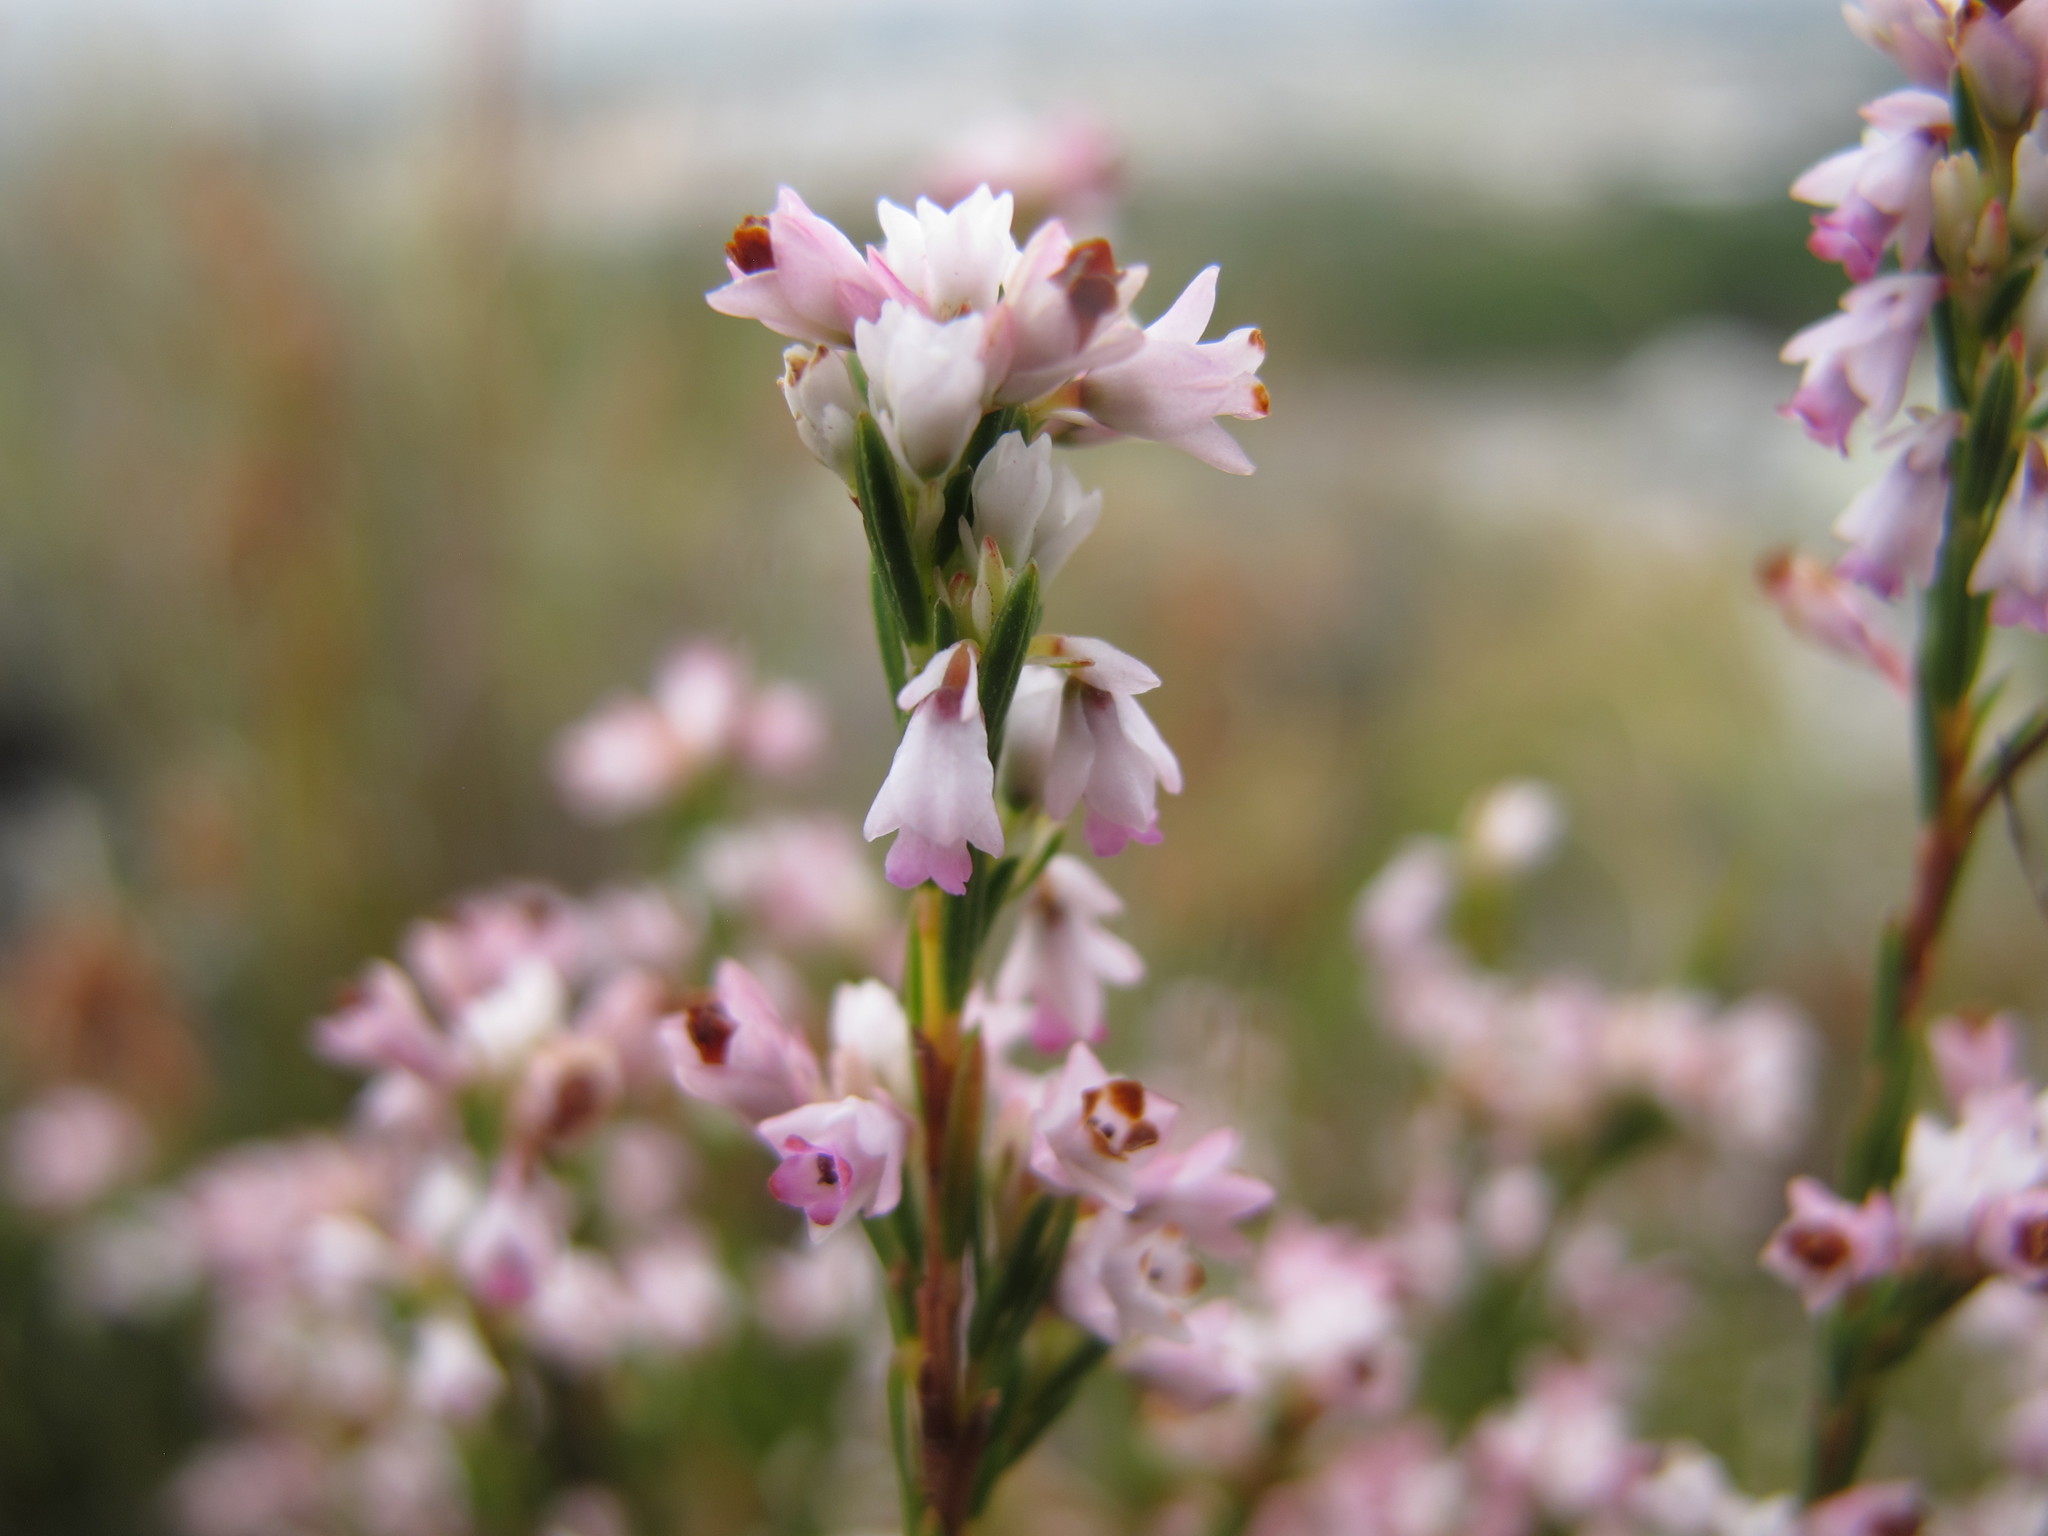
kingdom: Plantae
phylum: Tracheophyta
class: Magnoliopsida
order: Ericales
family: Ericaceae
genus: Erica
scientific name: Erica articularis
